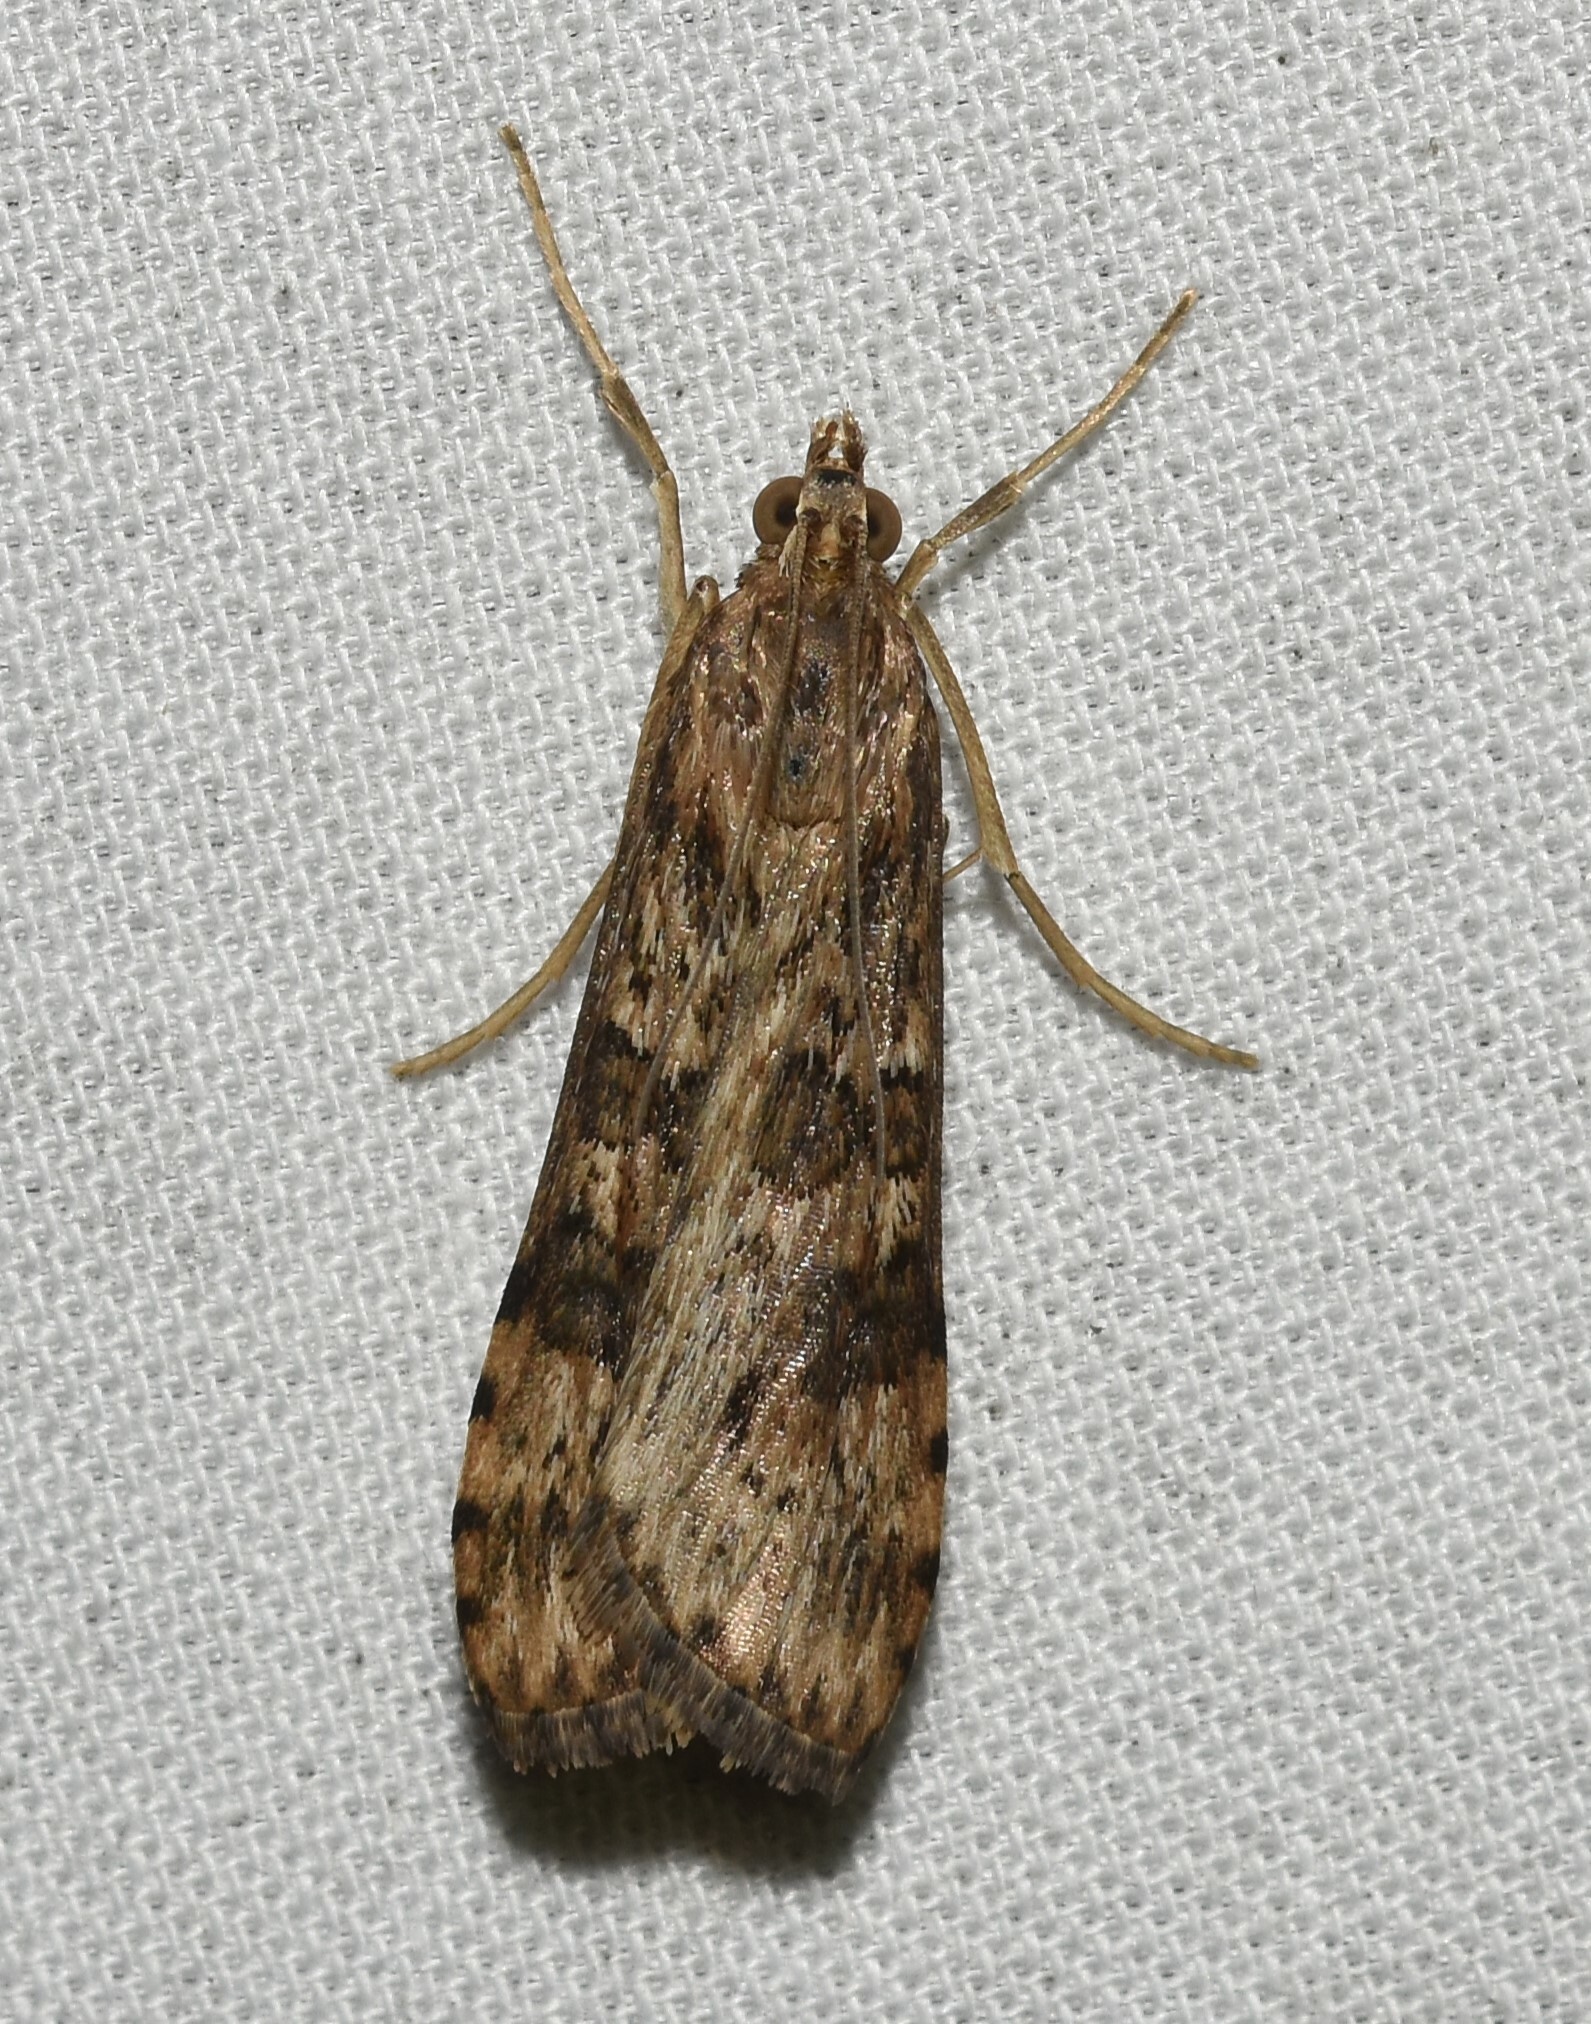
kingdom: Animalia
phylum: Arthropoda
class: Insecta
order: Lepidoptera
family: Crambidae
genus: Nomophila
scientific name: Nomophila nearctica
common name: American rush veneer
